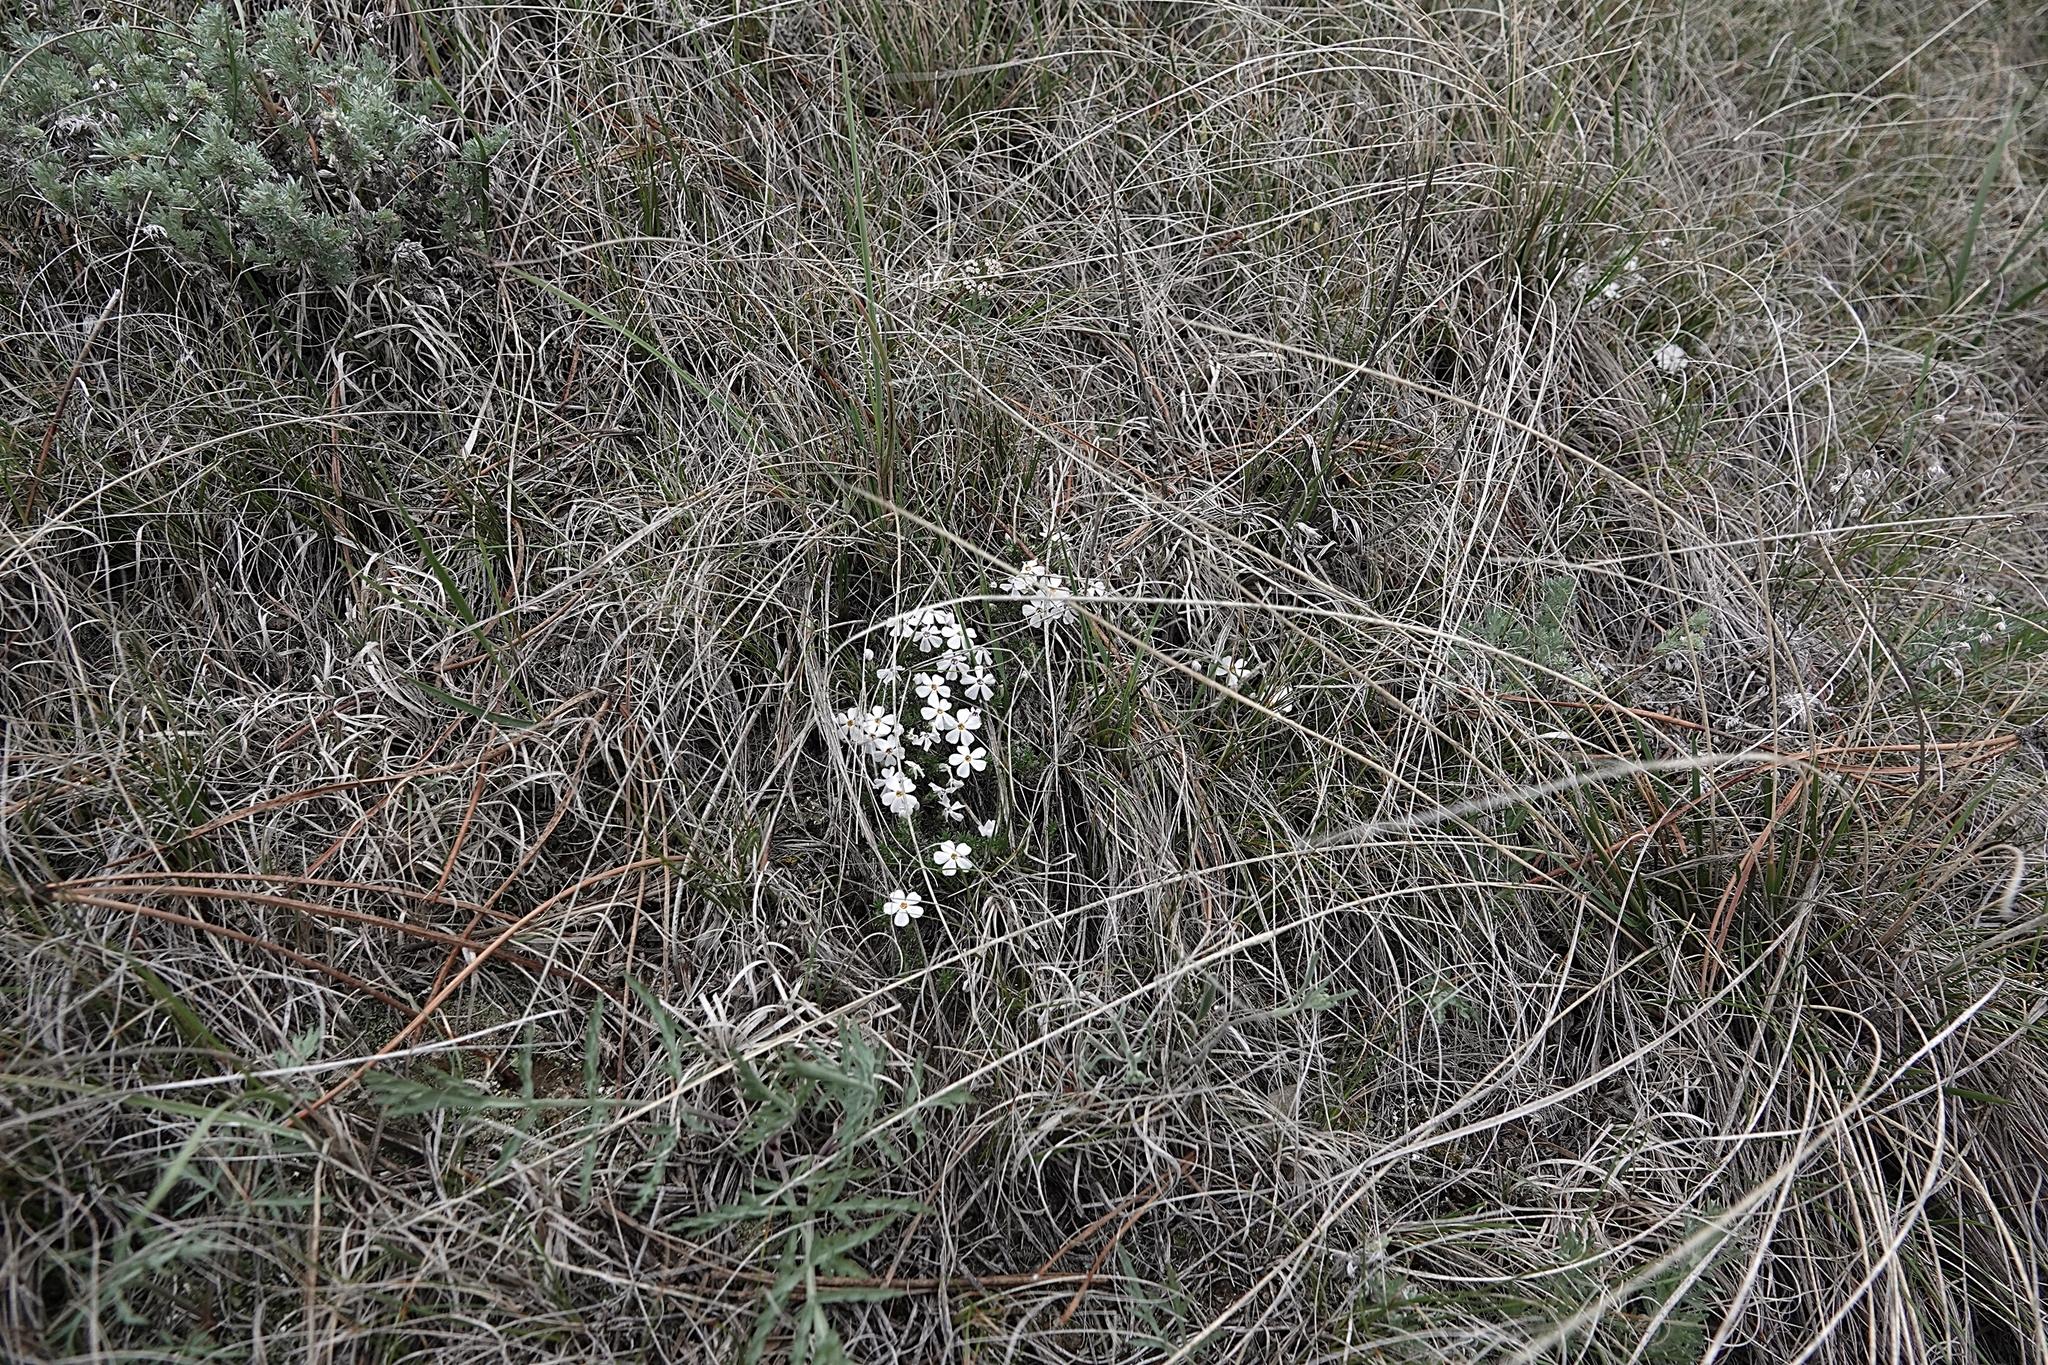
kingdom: Plantae
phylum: Tracheophyta
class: Magnoliopsida
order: Ericales
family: Polemoniaceae
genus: Phlox
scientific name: Phlox hoodii
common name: Moss phlox
